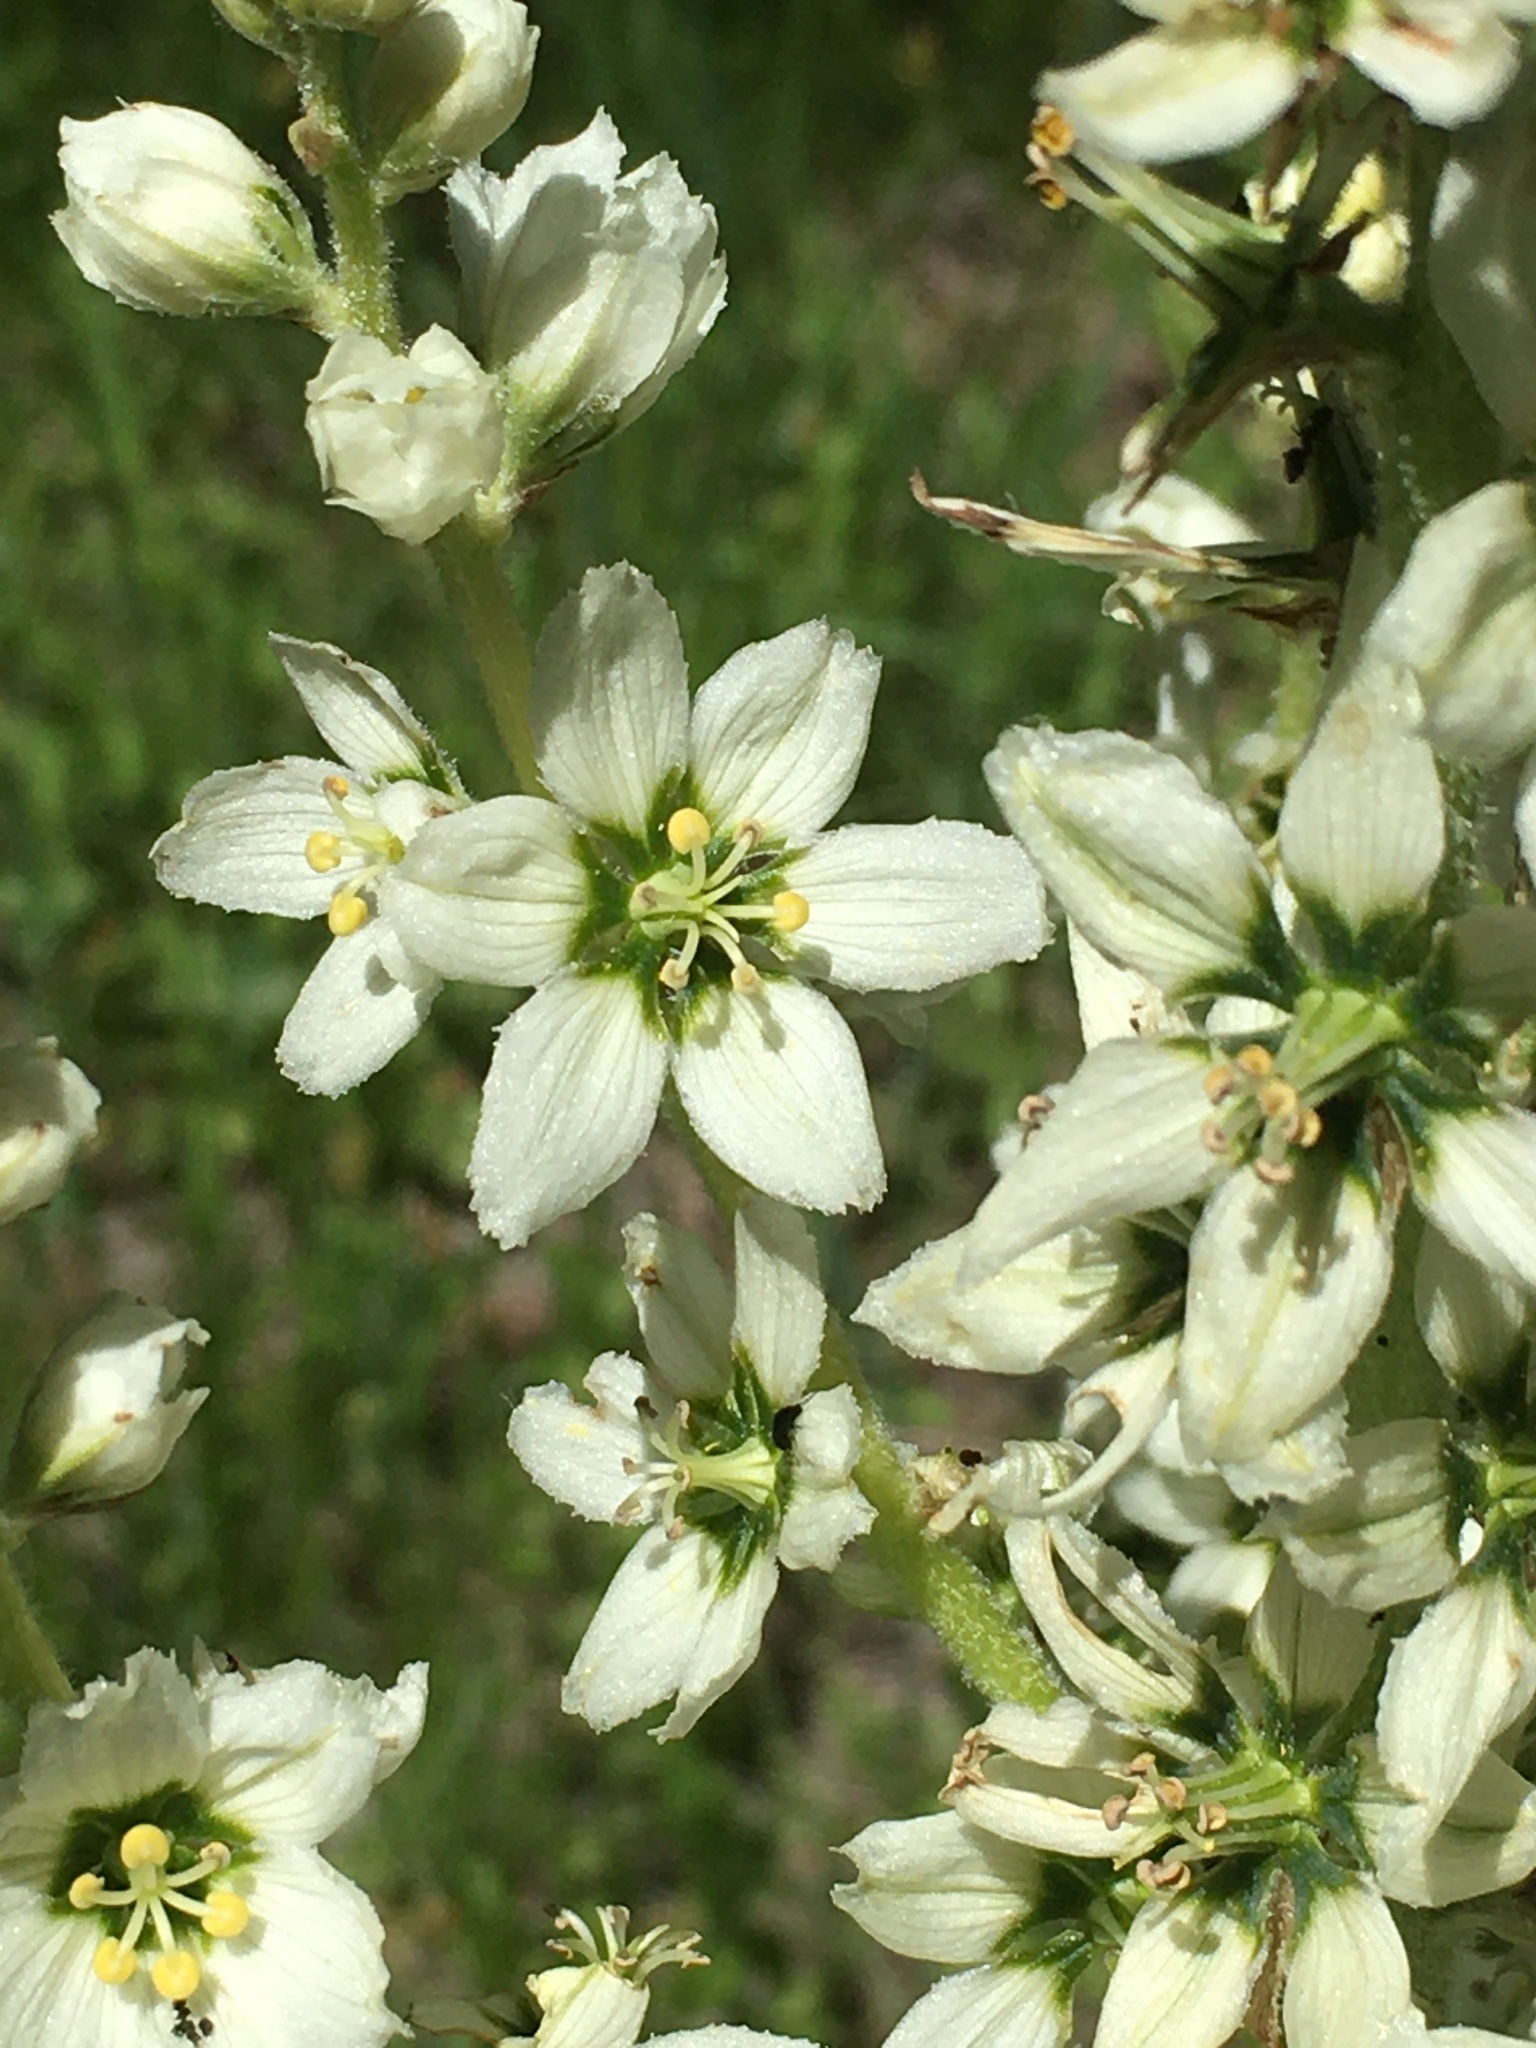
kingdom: Plantae
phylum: Tracheophyta
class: Liliopsida
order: Liliales
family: Melanthiaceae
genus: Veratrum
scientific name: Veratrum californicum
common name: California veratrum
